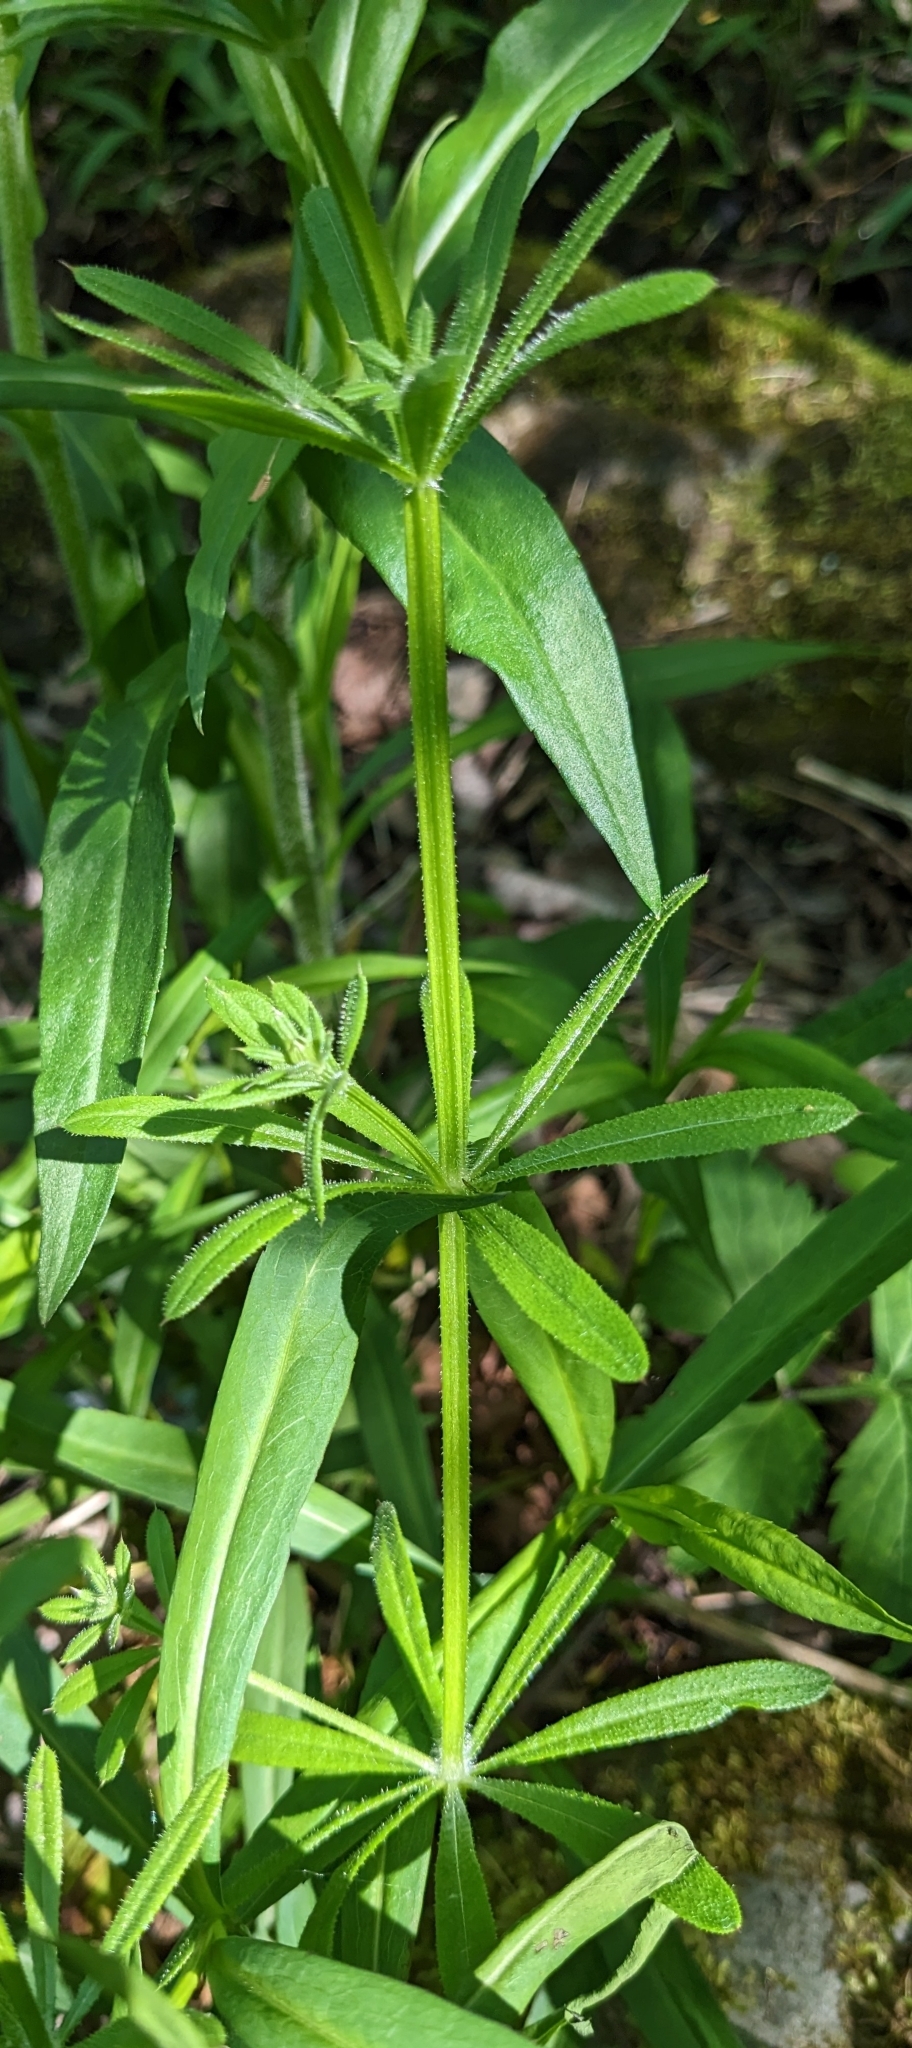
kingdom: Plantae
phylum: Tracheophyta
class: Magnoliopsida
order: Gentianales
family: Rubiaceae
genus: Galium
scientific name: Galium aparine
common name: Cleavers
